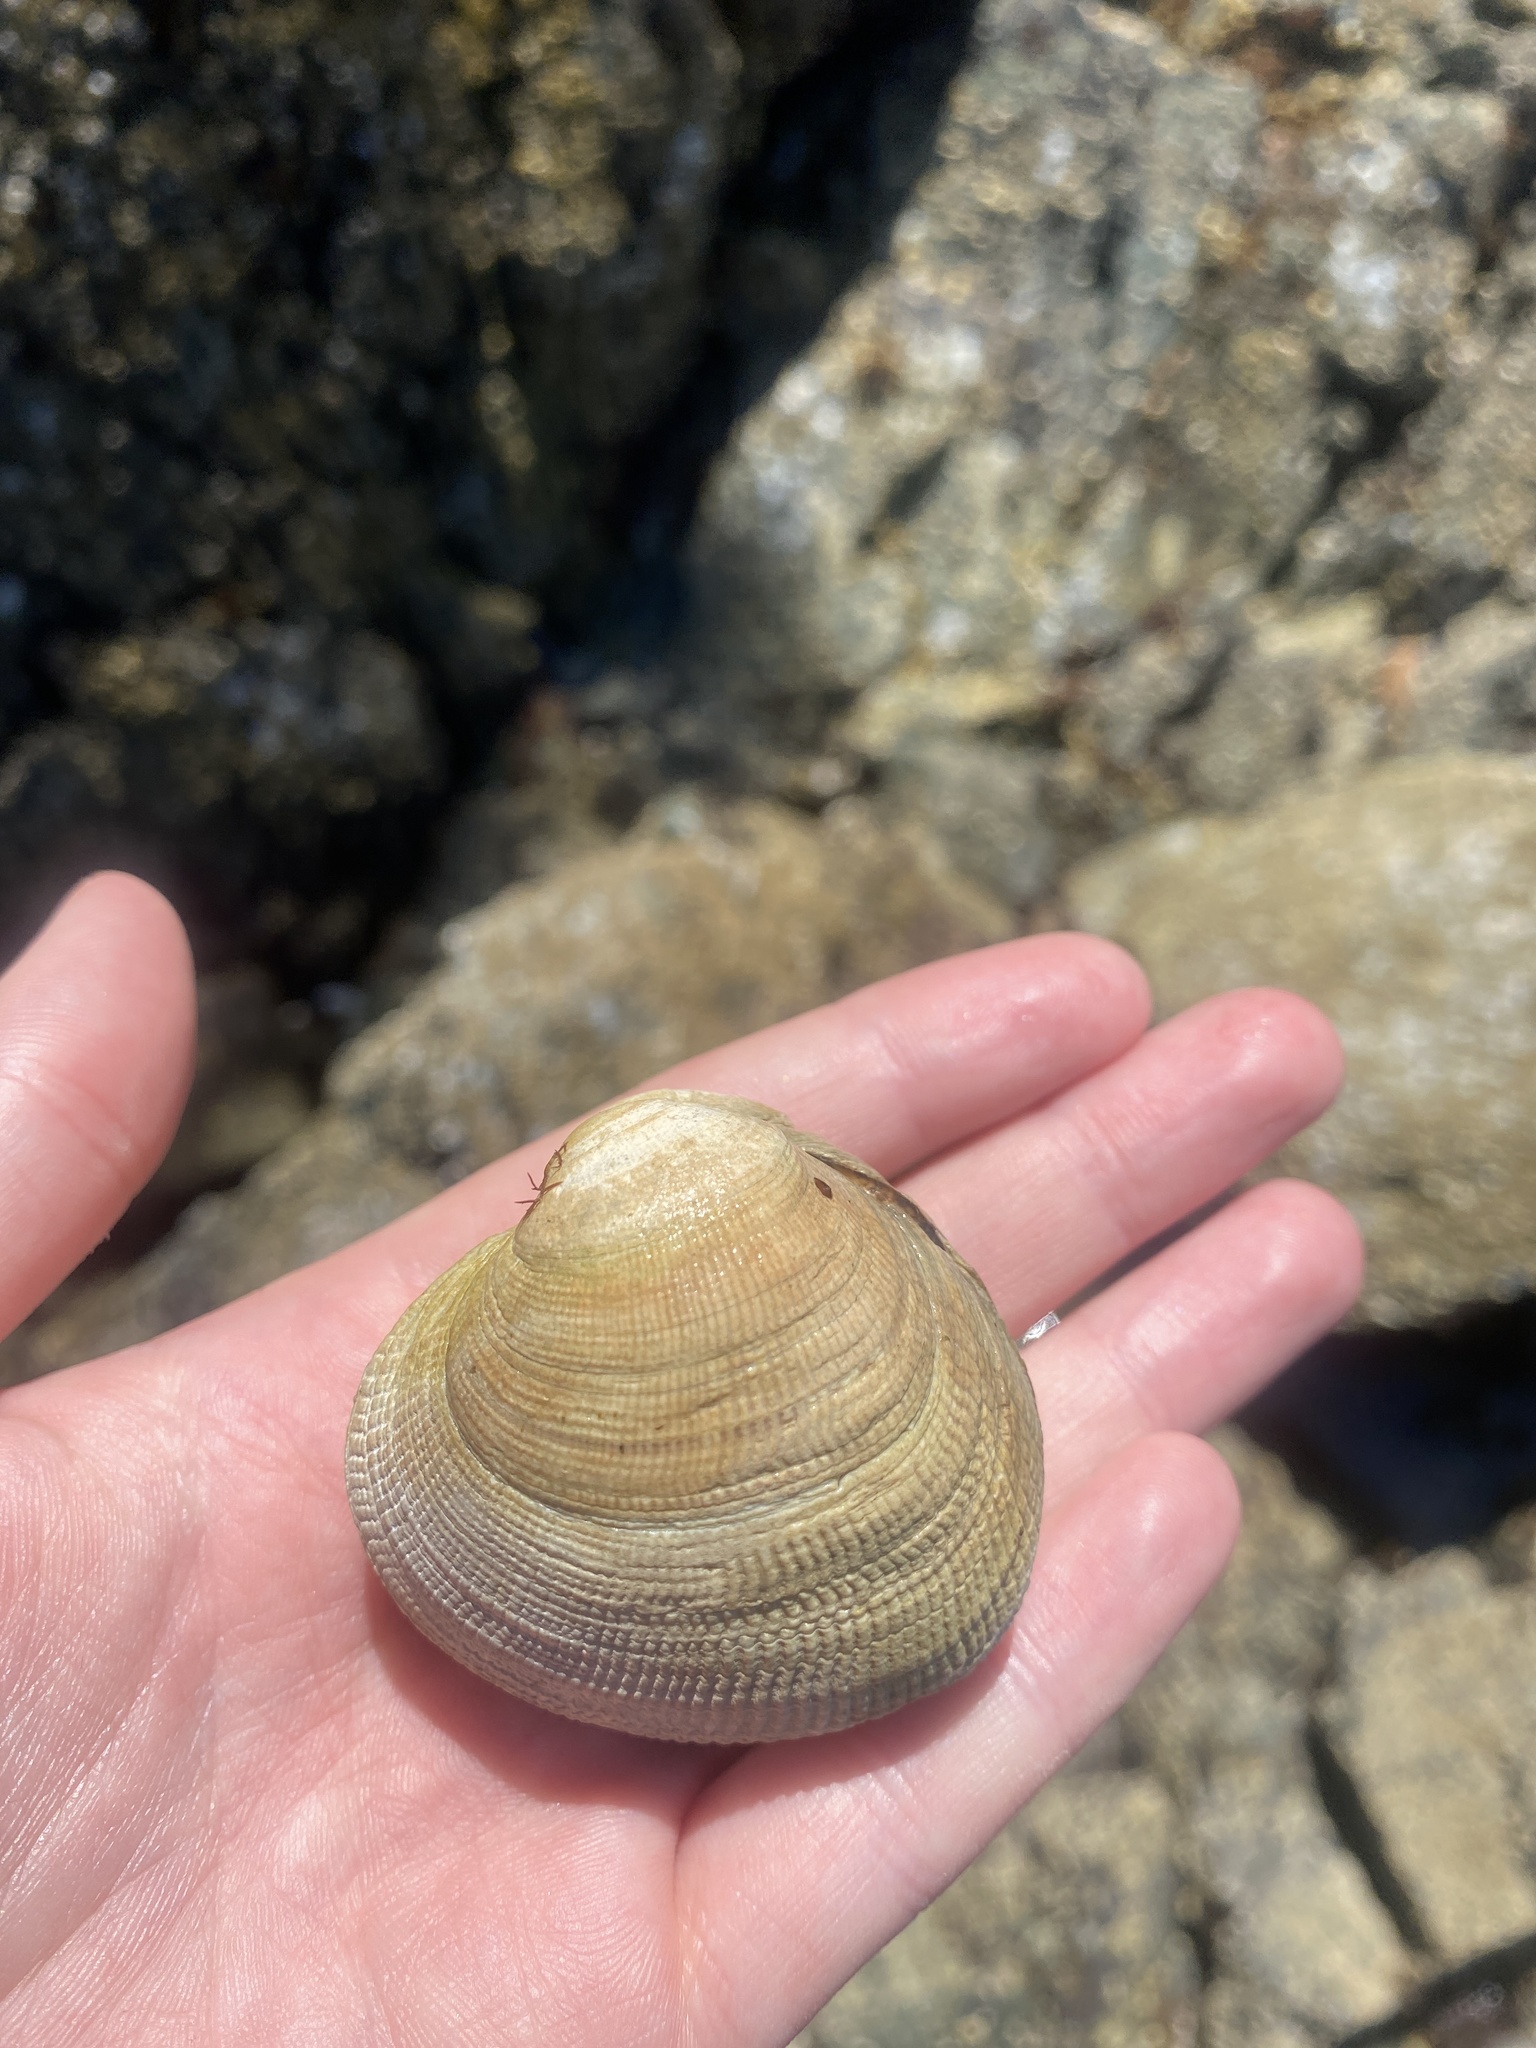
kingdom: Animalia
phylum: Mollusca
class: Bivalvia
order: Venerida
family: Veneridae
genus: Leukoma
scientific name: Leukoma staminea
